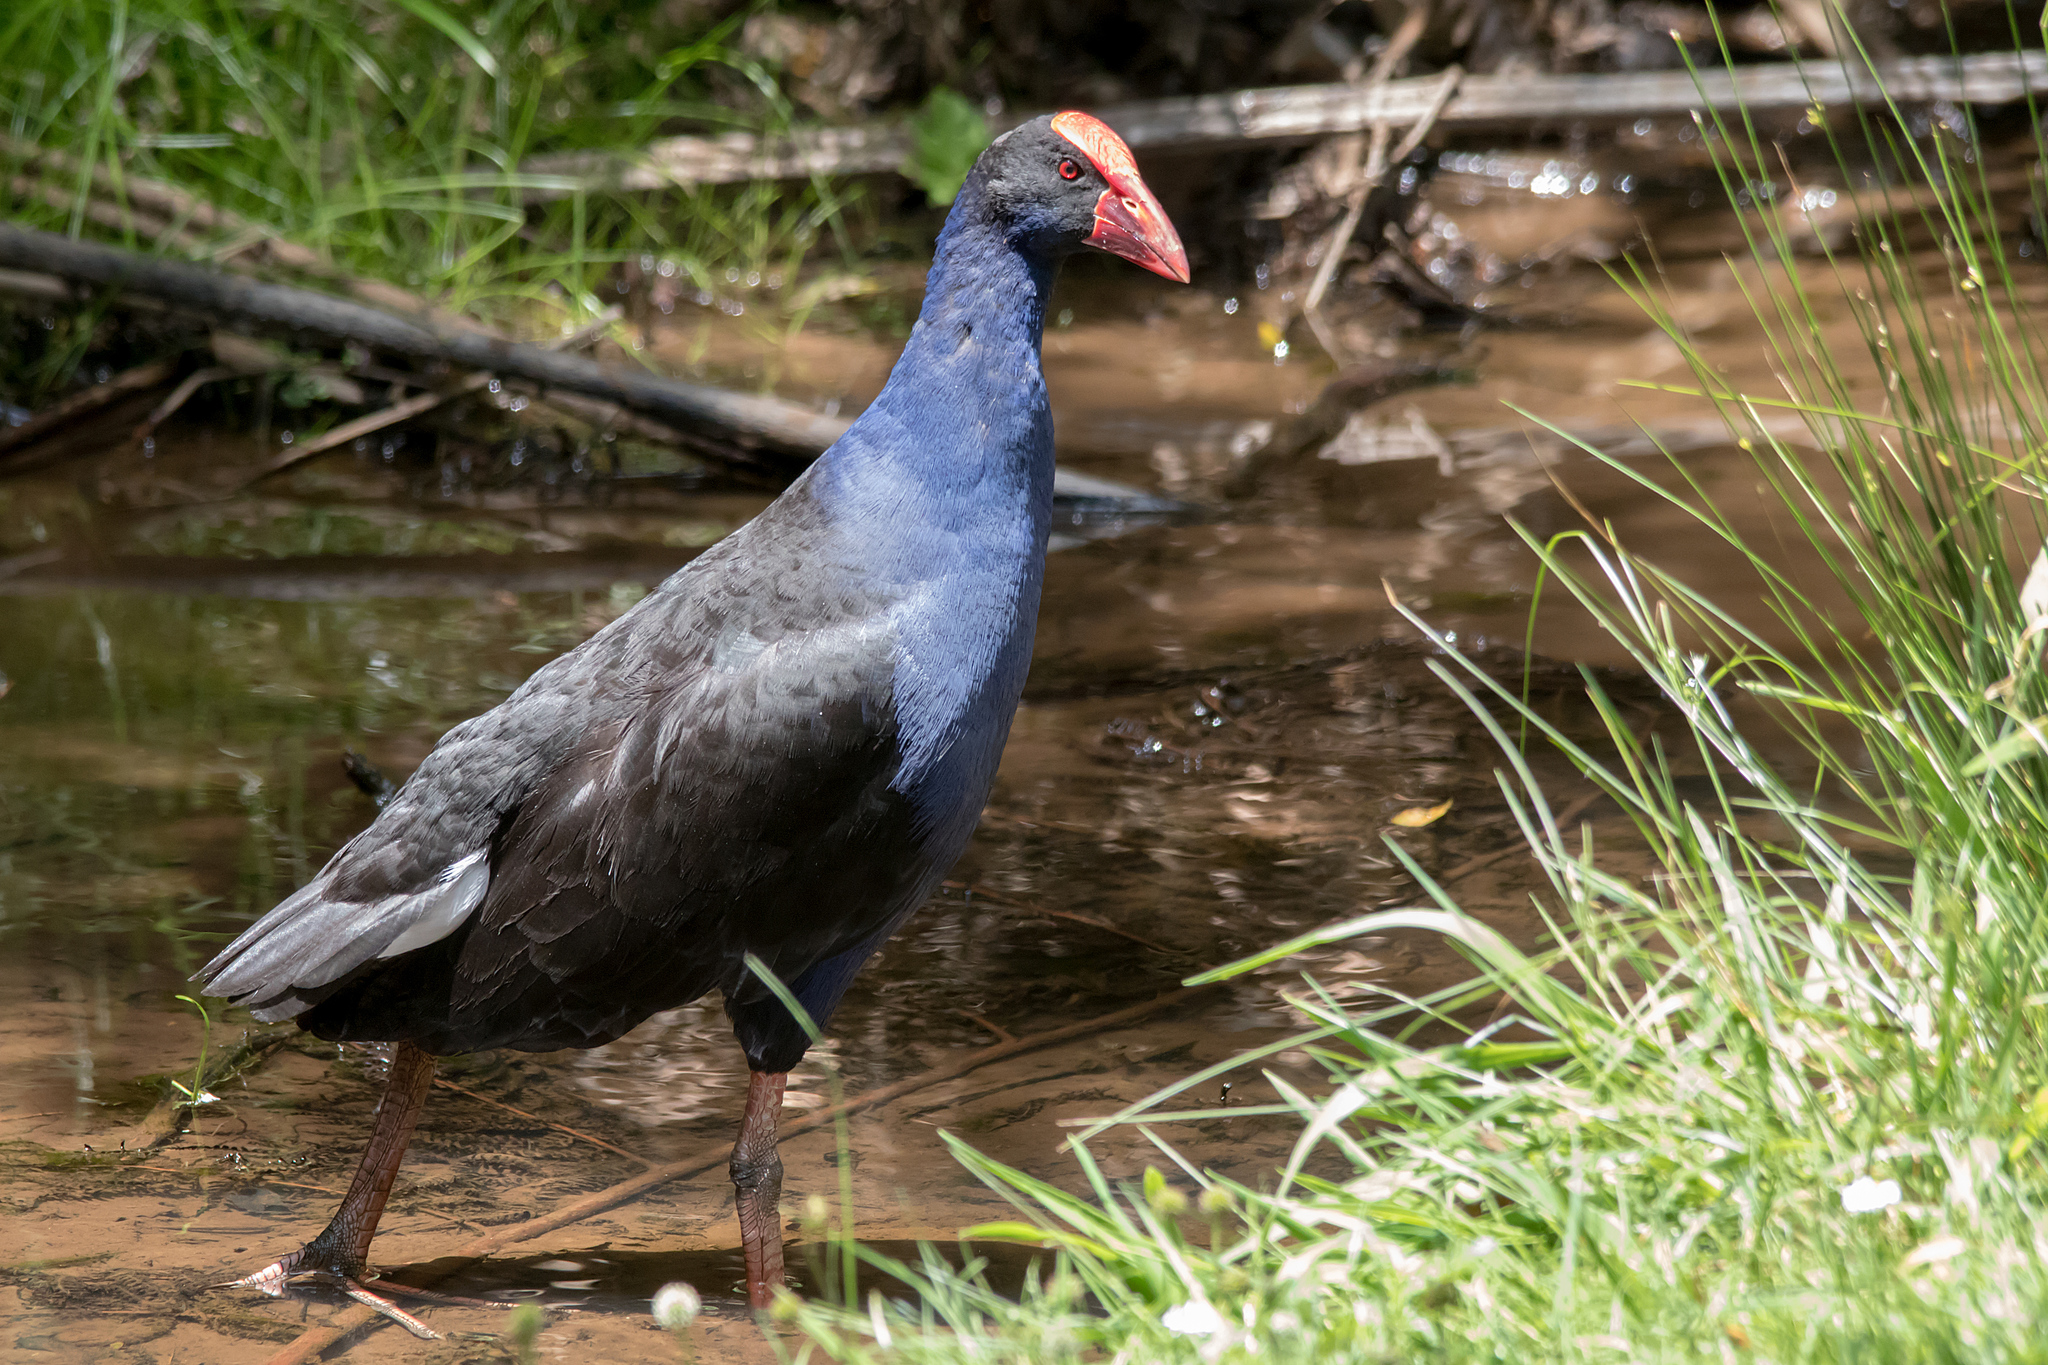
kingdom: Animalia
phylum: Chordata
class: Aves
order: Gruiformes
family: Rallidae
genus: Porphyrio
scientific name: Porphyrio melanotus
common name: Australasian swamphen
